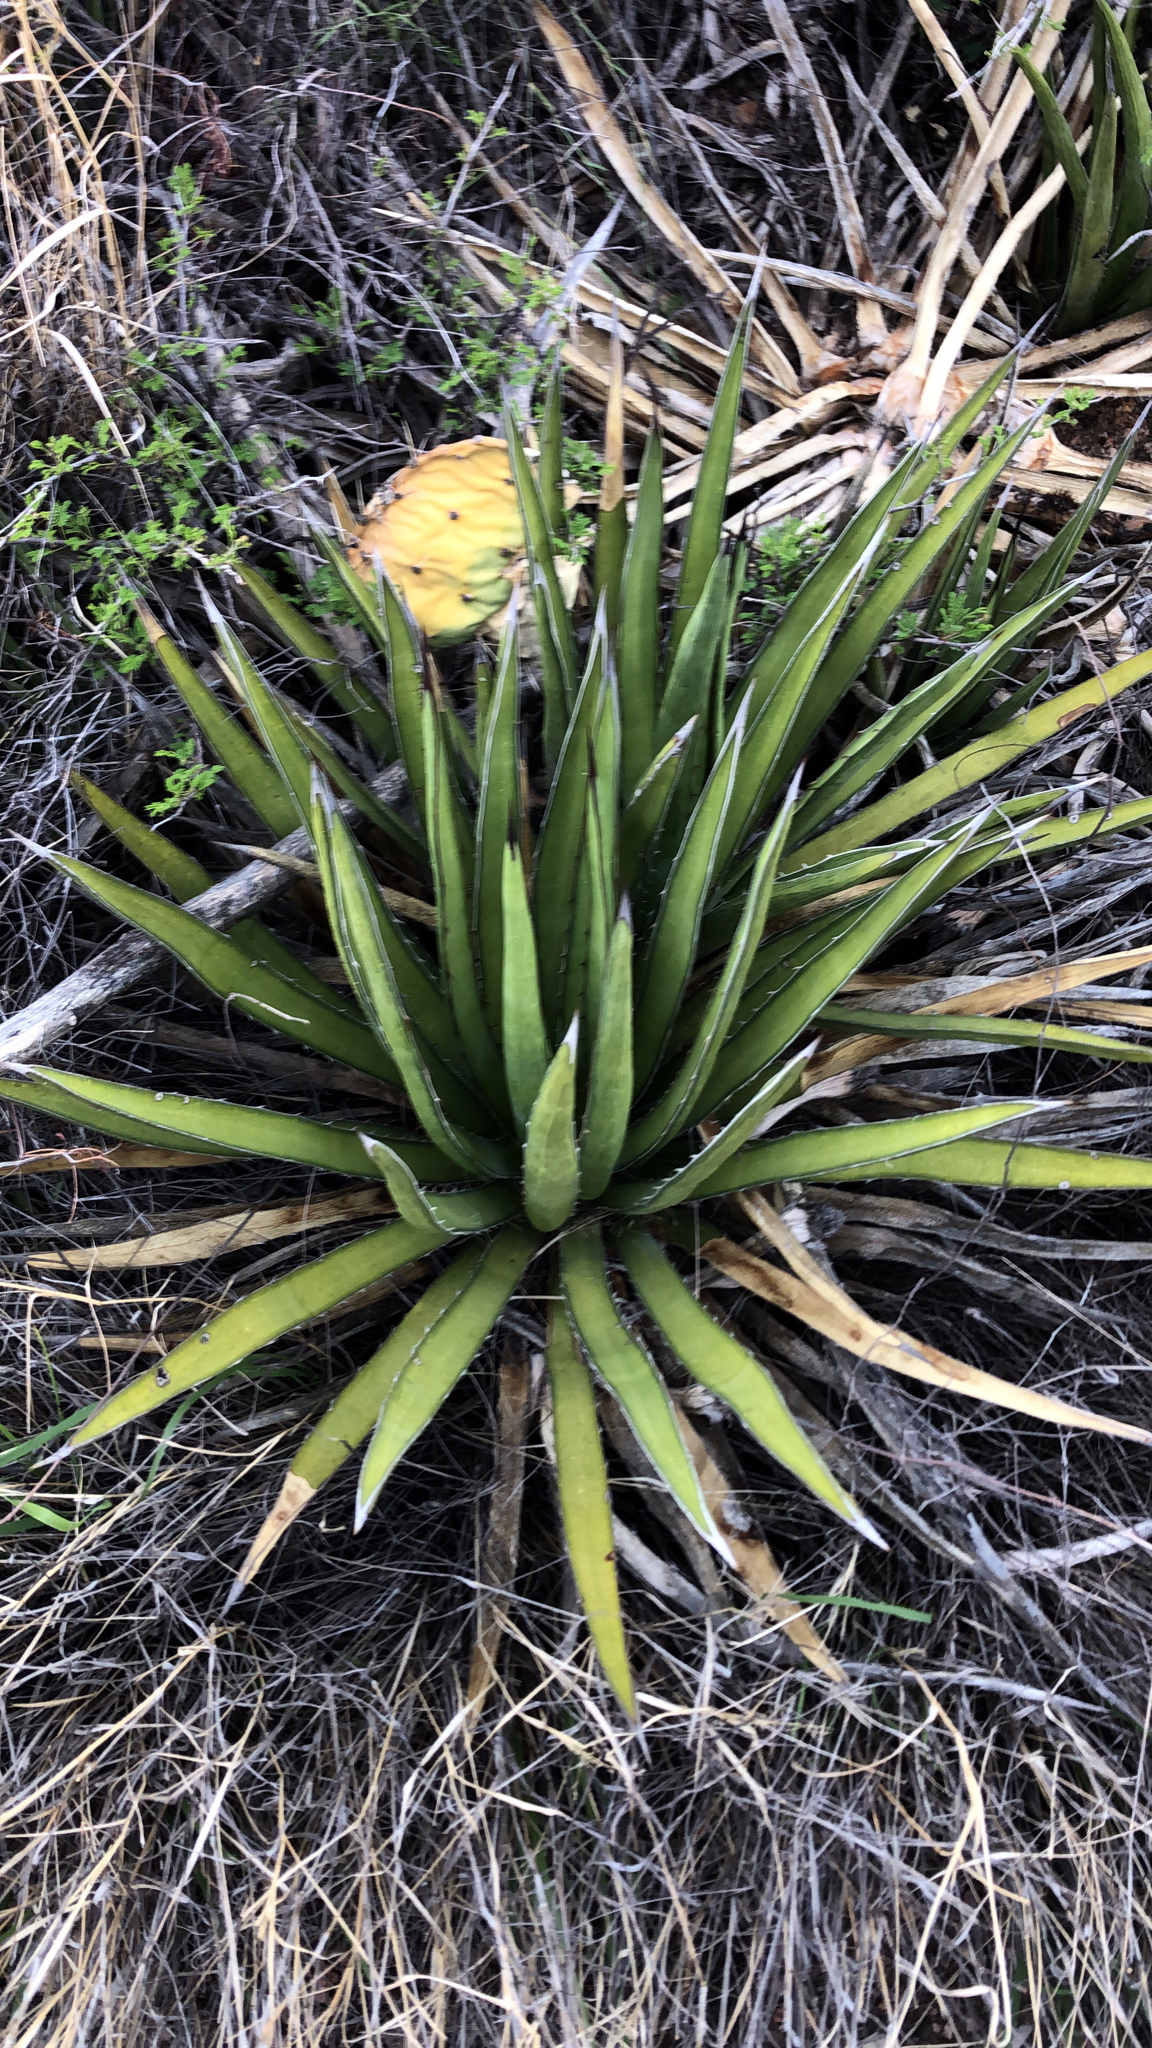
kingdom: Plantae
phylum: Tracheophyta
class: Liliopsida
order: Asparagales
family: Asparagaceae
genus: Agave
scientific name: Agave lechuguilla
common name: Lecheguilla agave
